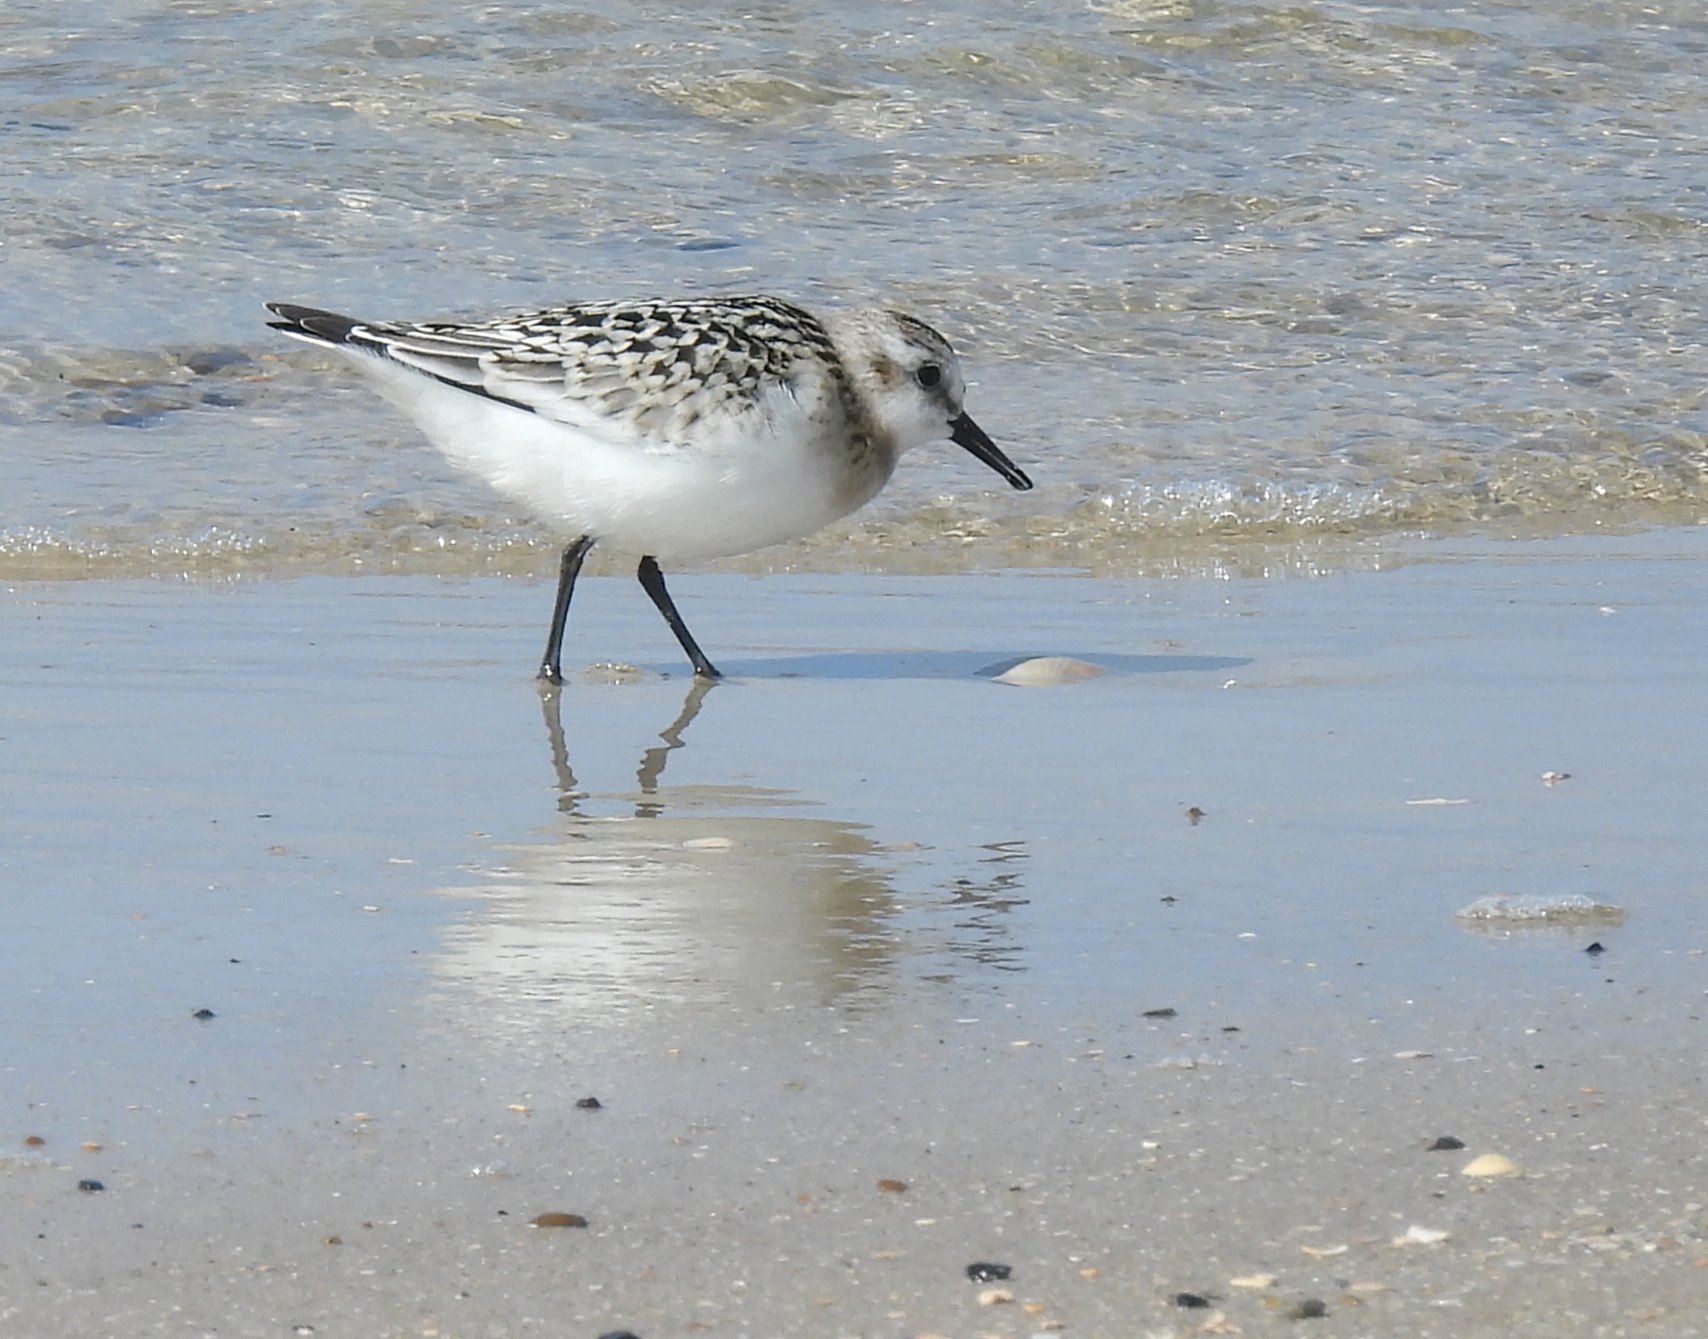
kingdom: Animalia
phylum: Chordata
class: Aves
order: Charadriiformes
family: Scolopacidae
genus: Calidris
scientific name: Calidris alba
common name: Sanderling
